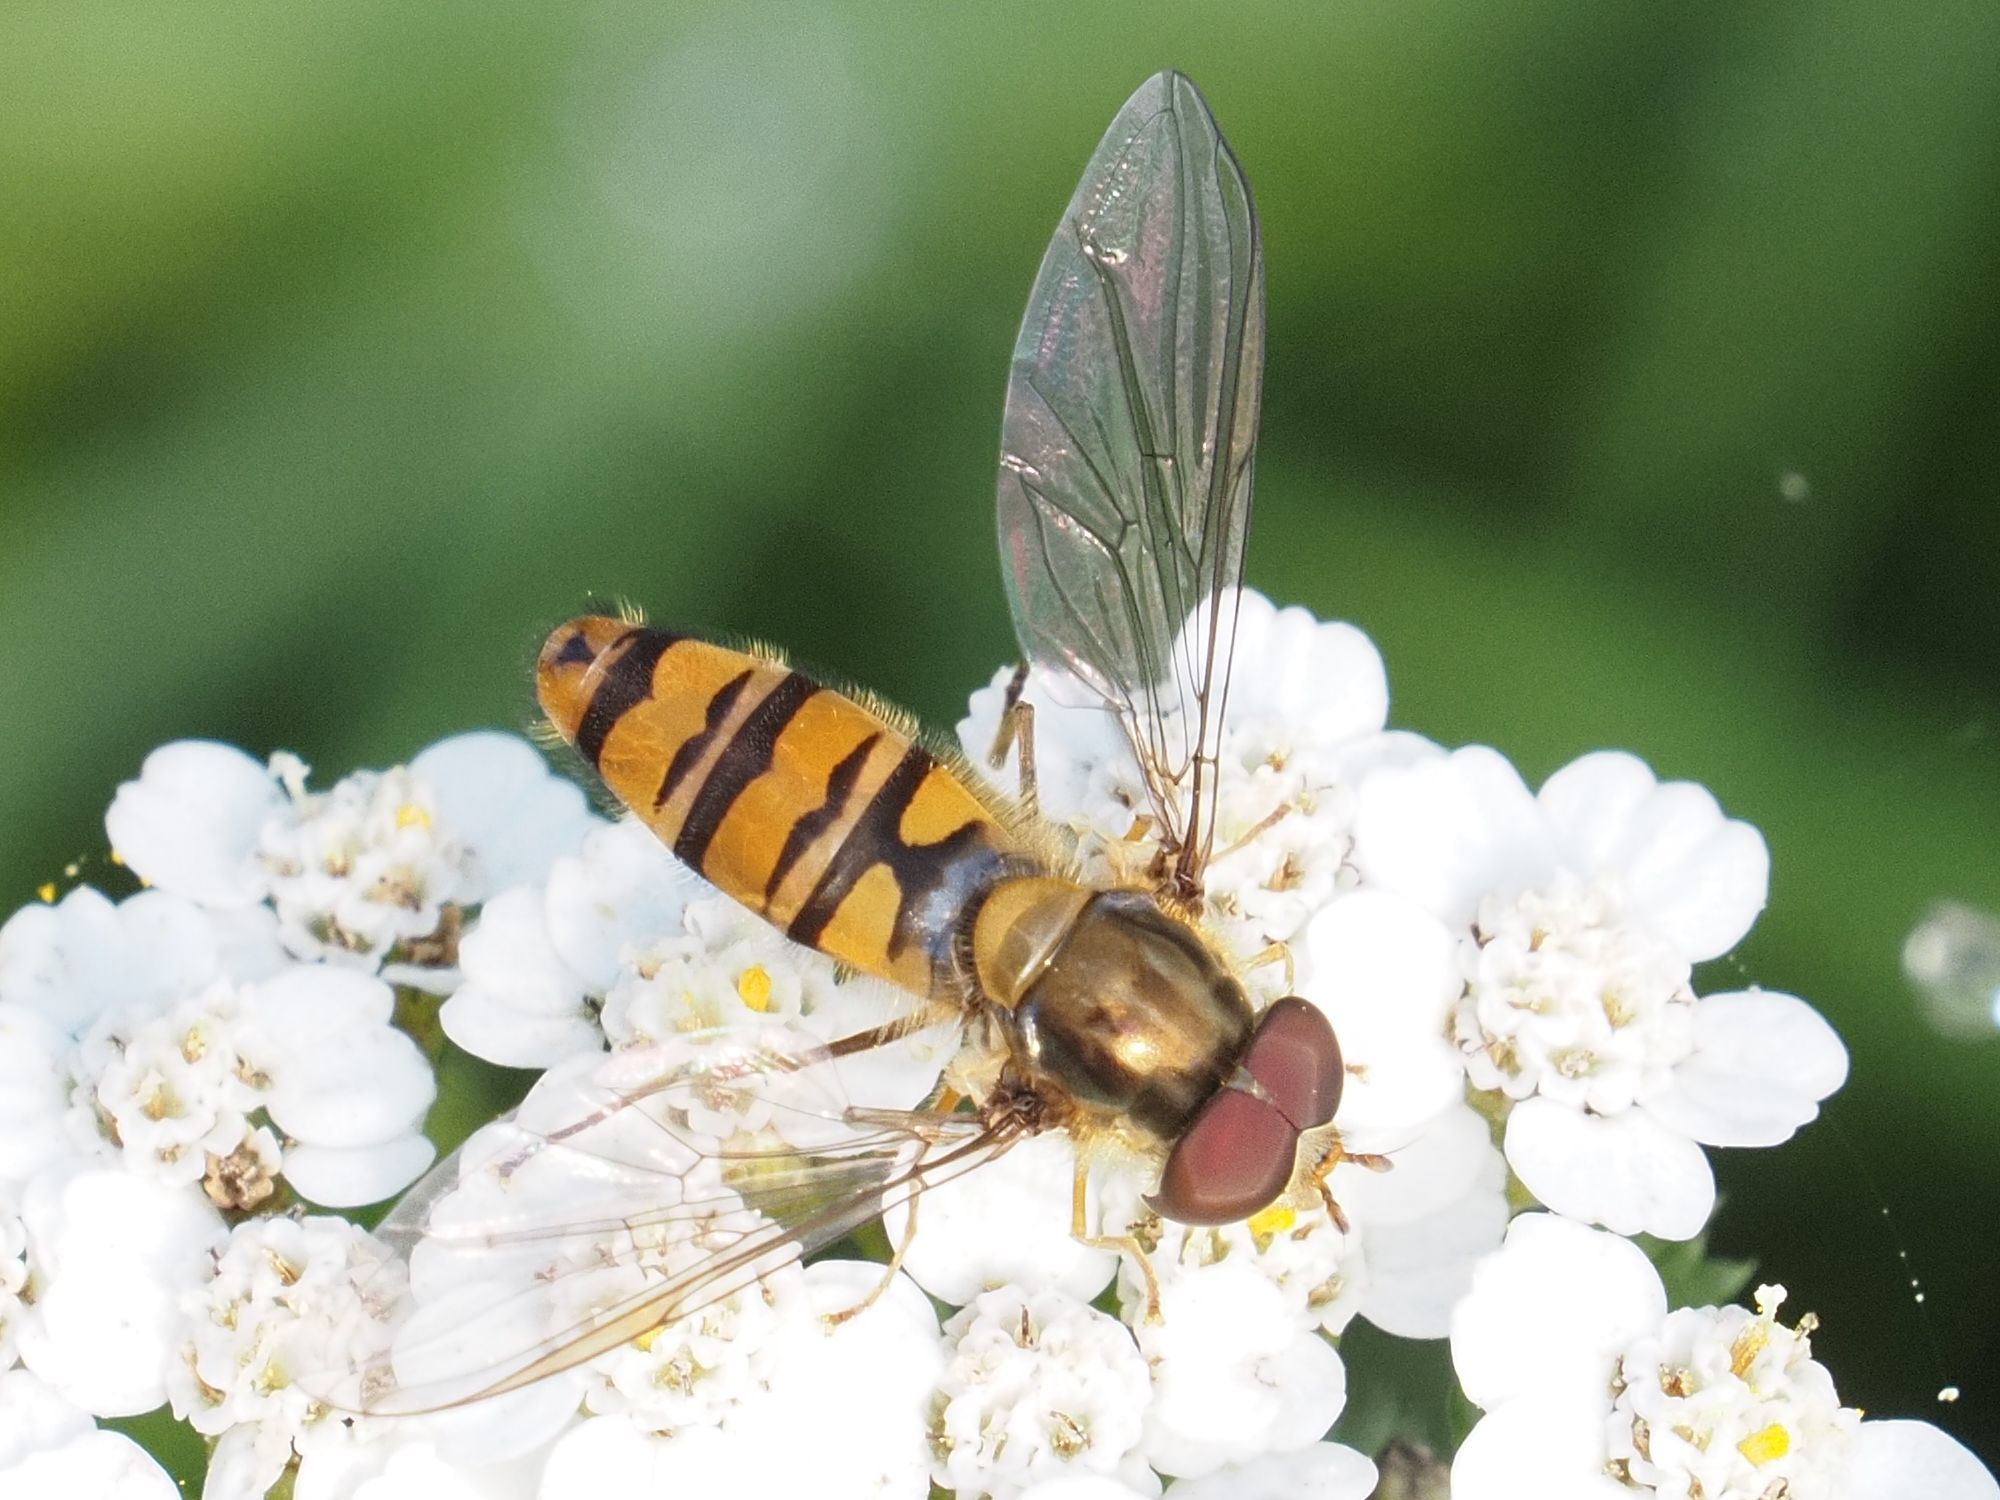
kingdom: Animalia
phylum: Arthropoda
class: Insecta
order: Diptera
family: Syrphidae
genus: Episyrphus
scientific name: Episyrphus balteatus
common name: Marmalade hoverfly
